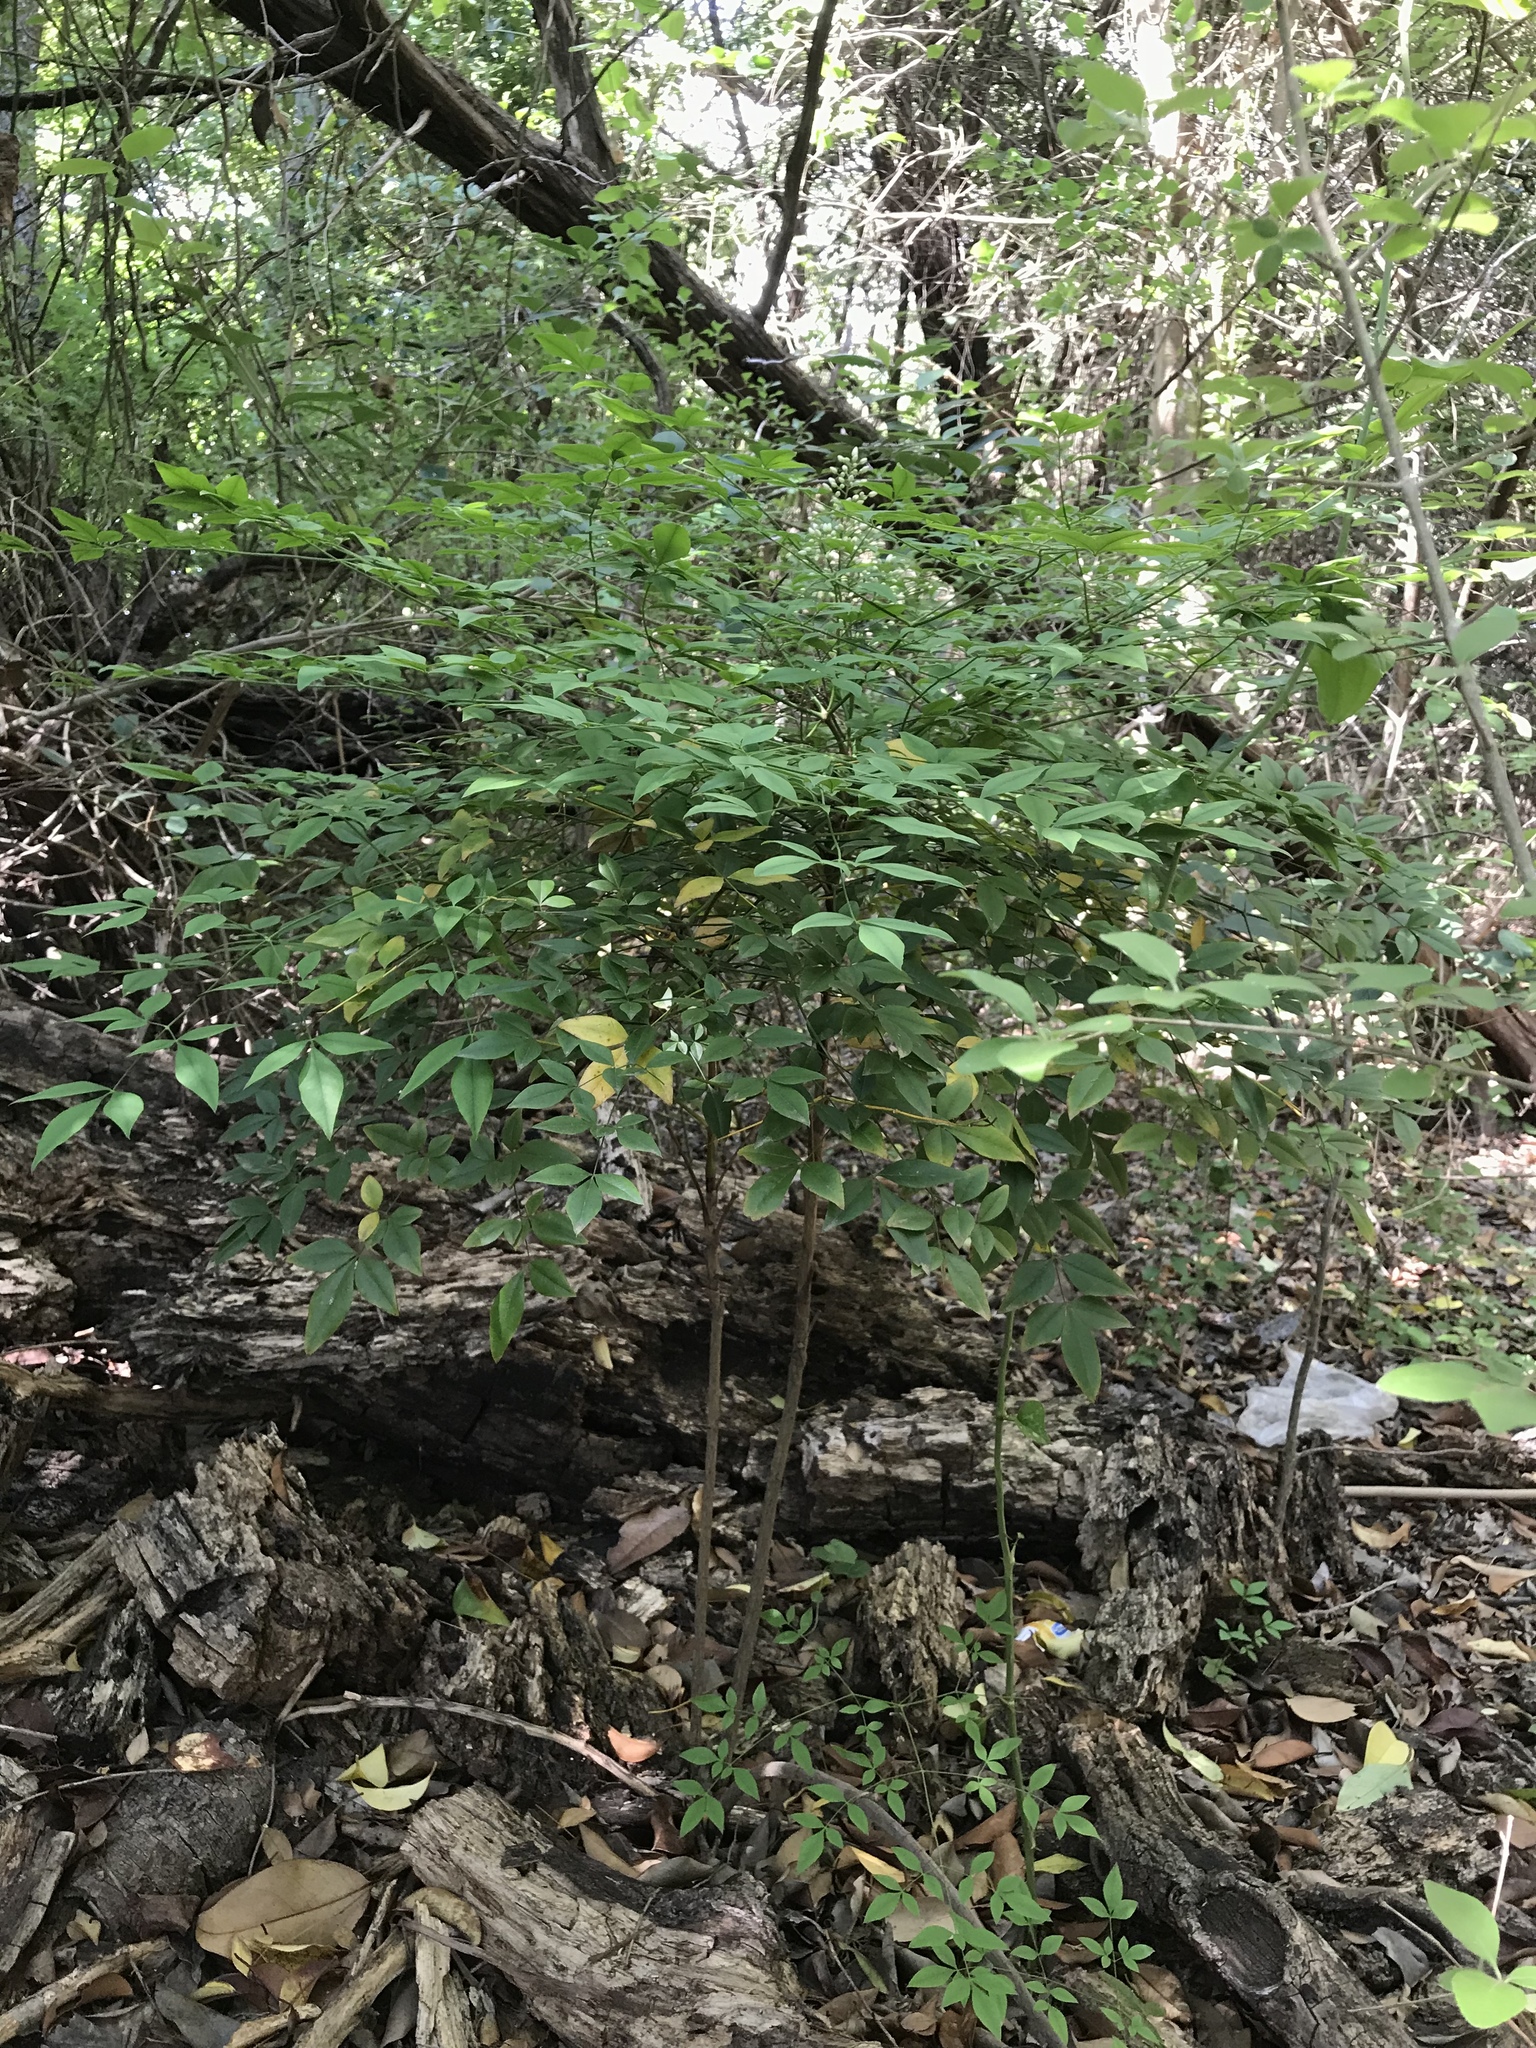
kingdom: Plantae
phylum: Tracheophyta
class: Magnoliopsida
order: Ranunculales
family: Berberidaceae
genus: Nandina
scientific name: Nandina domestica
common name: Sacred bamboo
